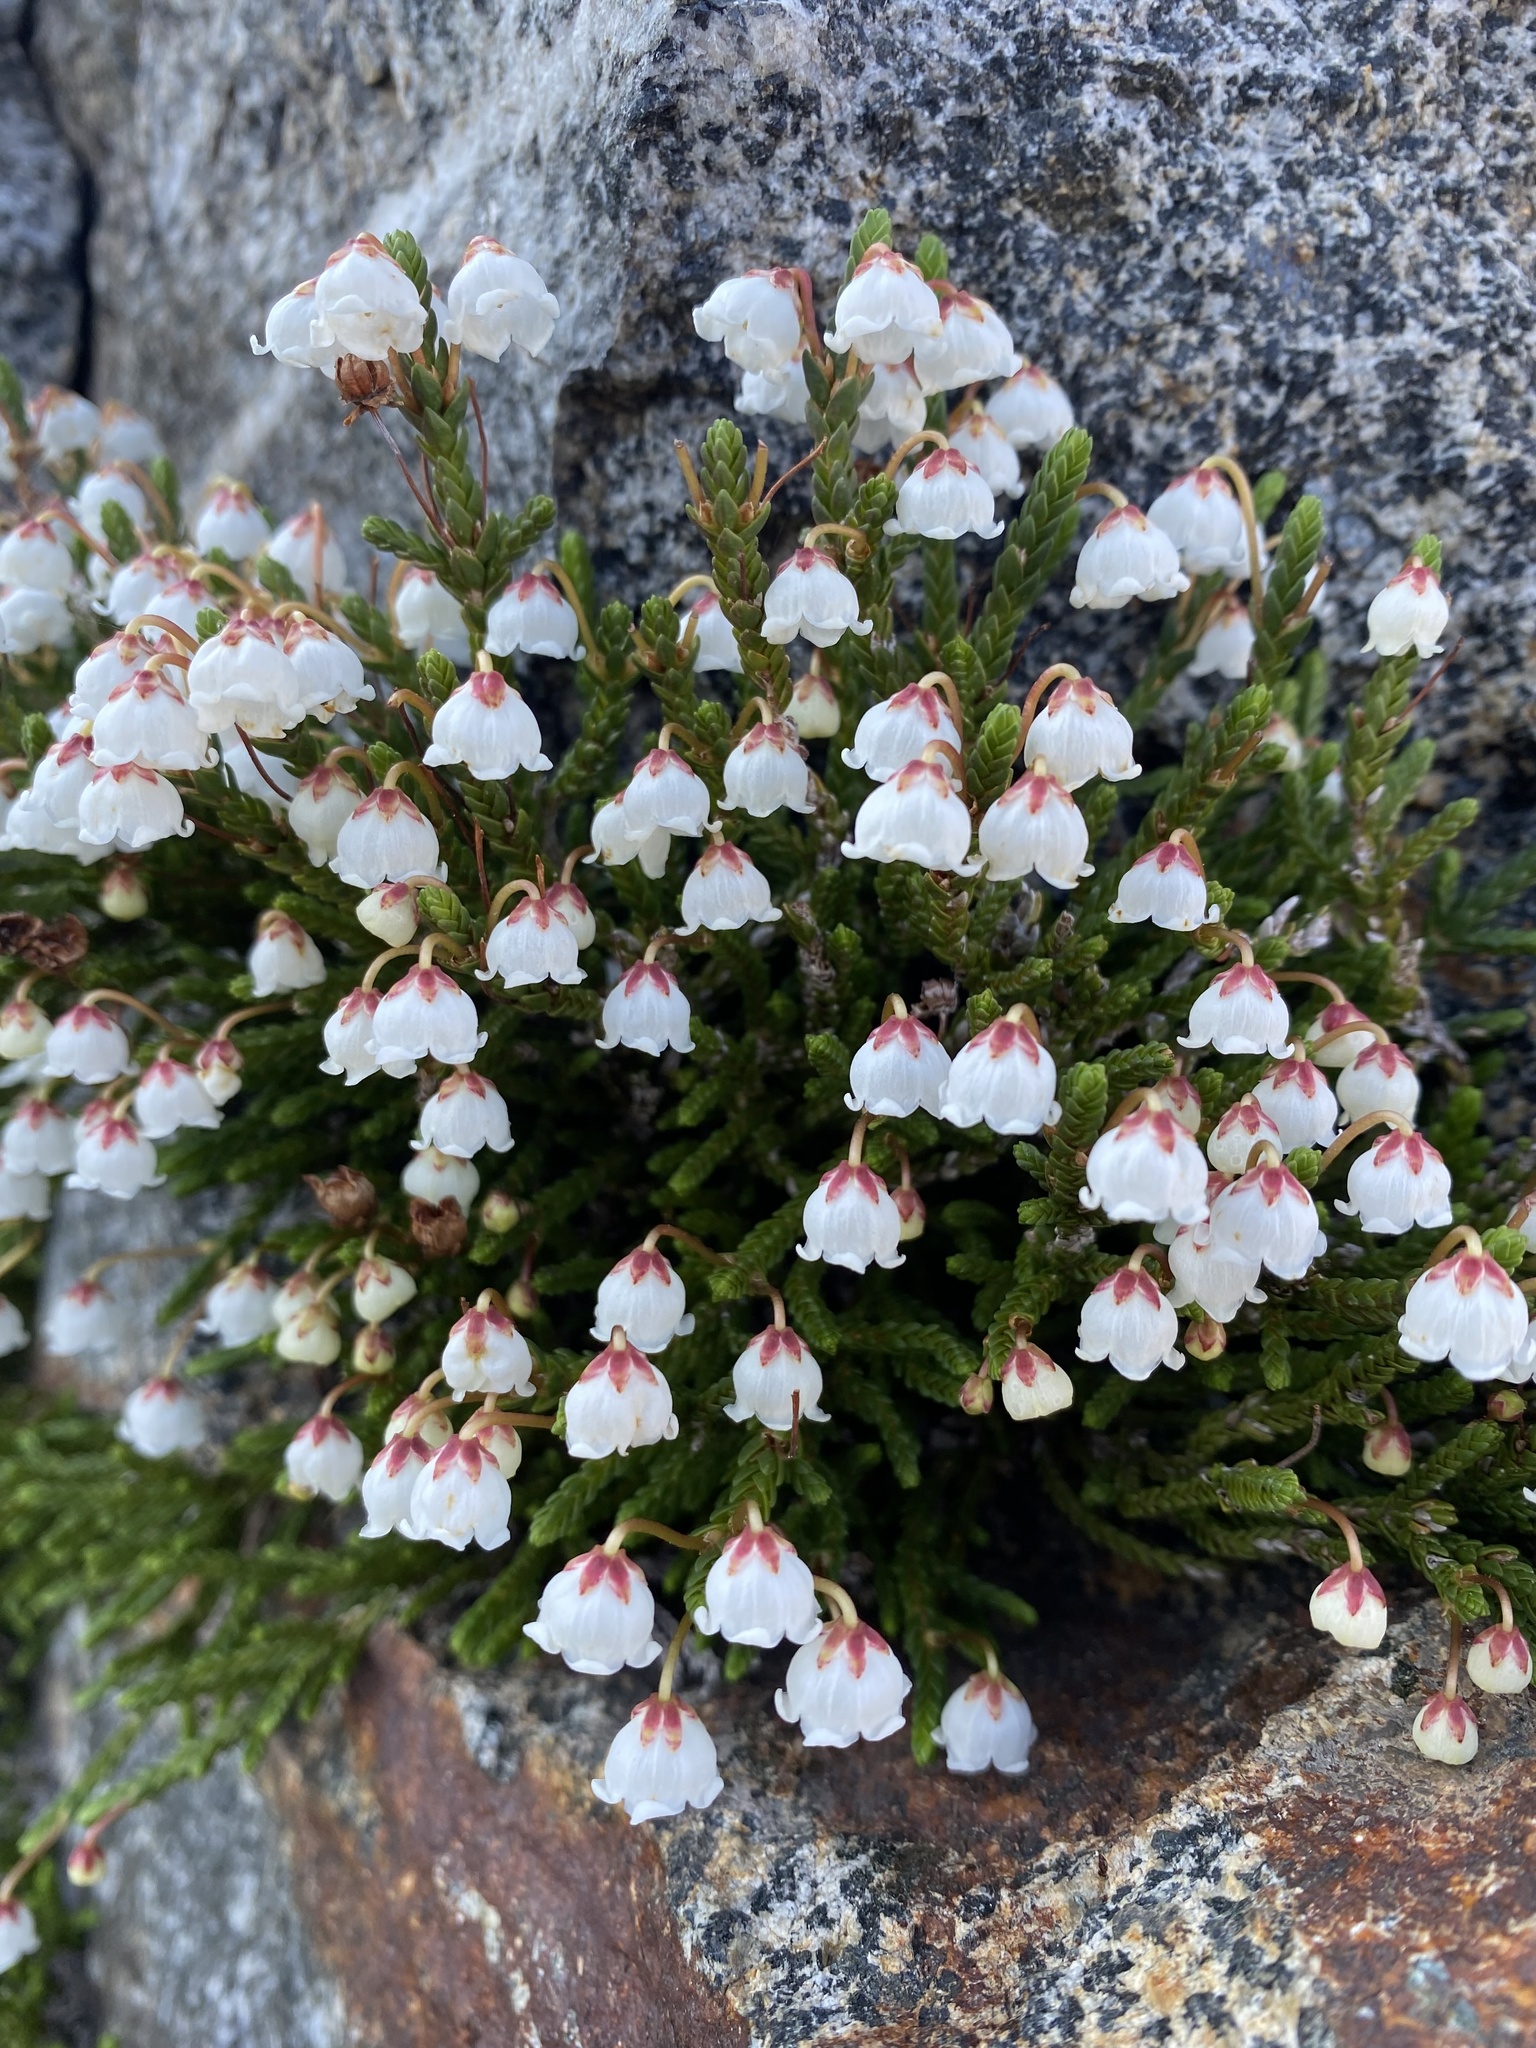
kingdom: Plantae
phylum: Tracheophyta
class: Magnoliopsida
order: Ericales
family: Ericaceae
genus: Cassiope
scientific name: Cassiope mertensiana
